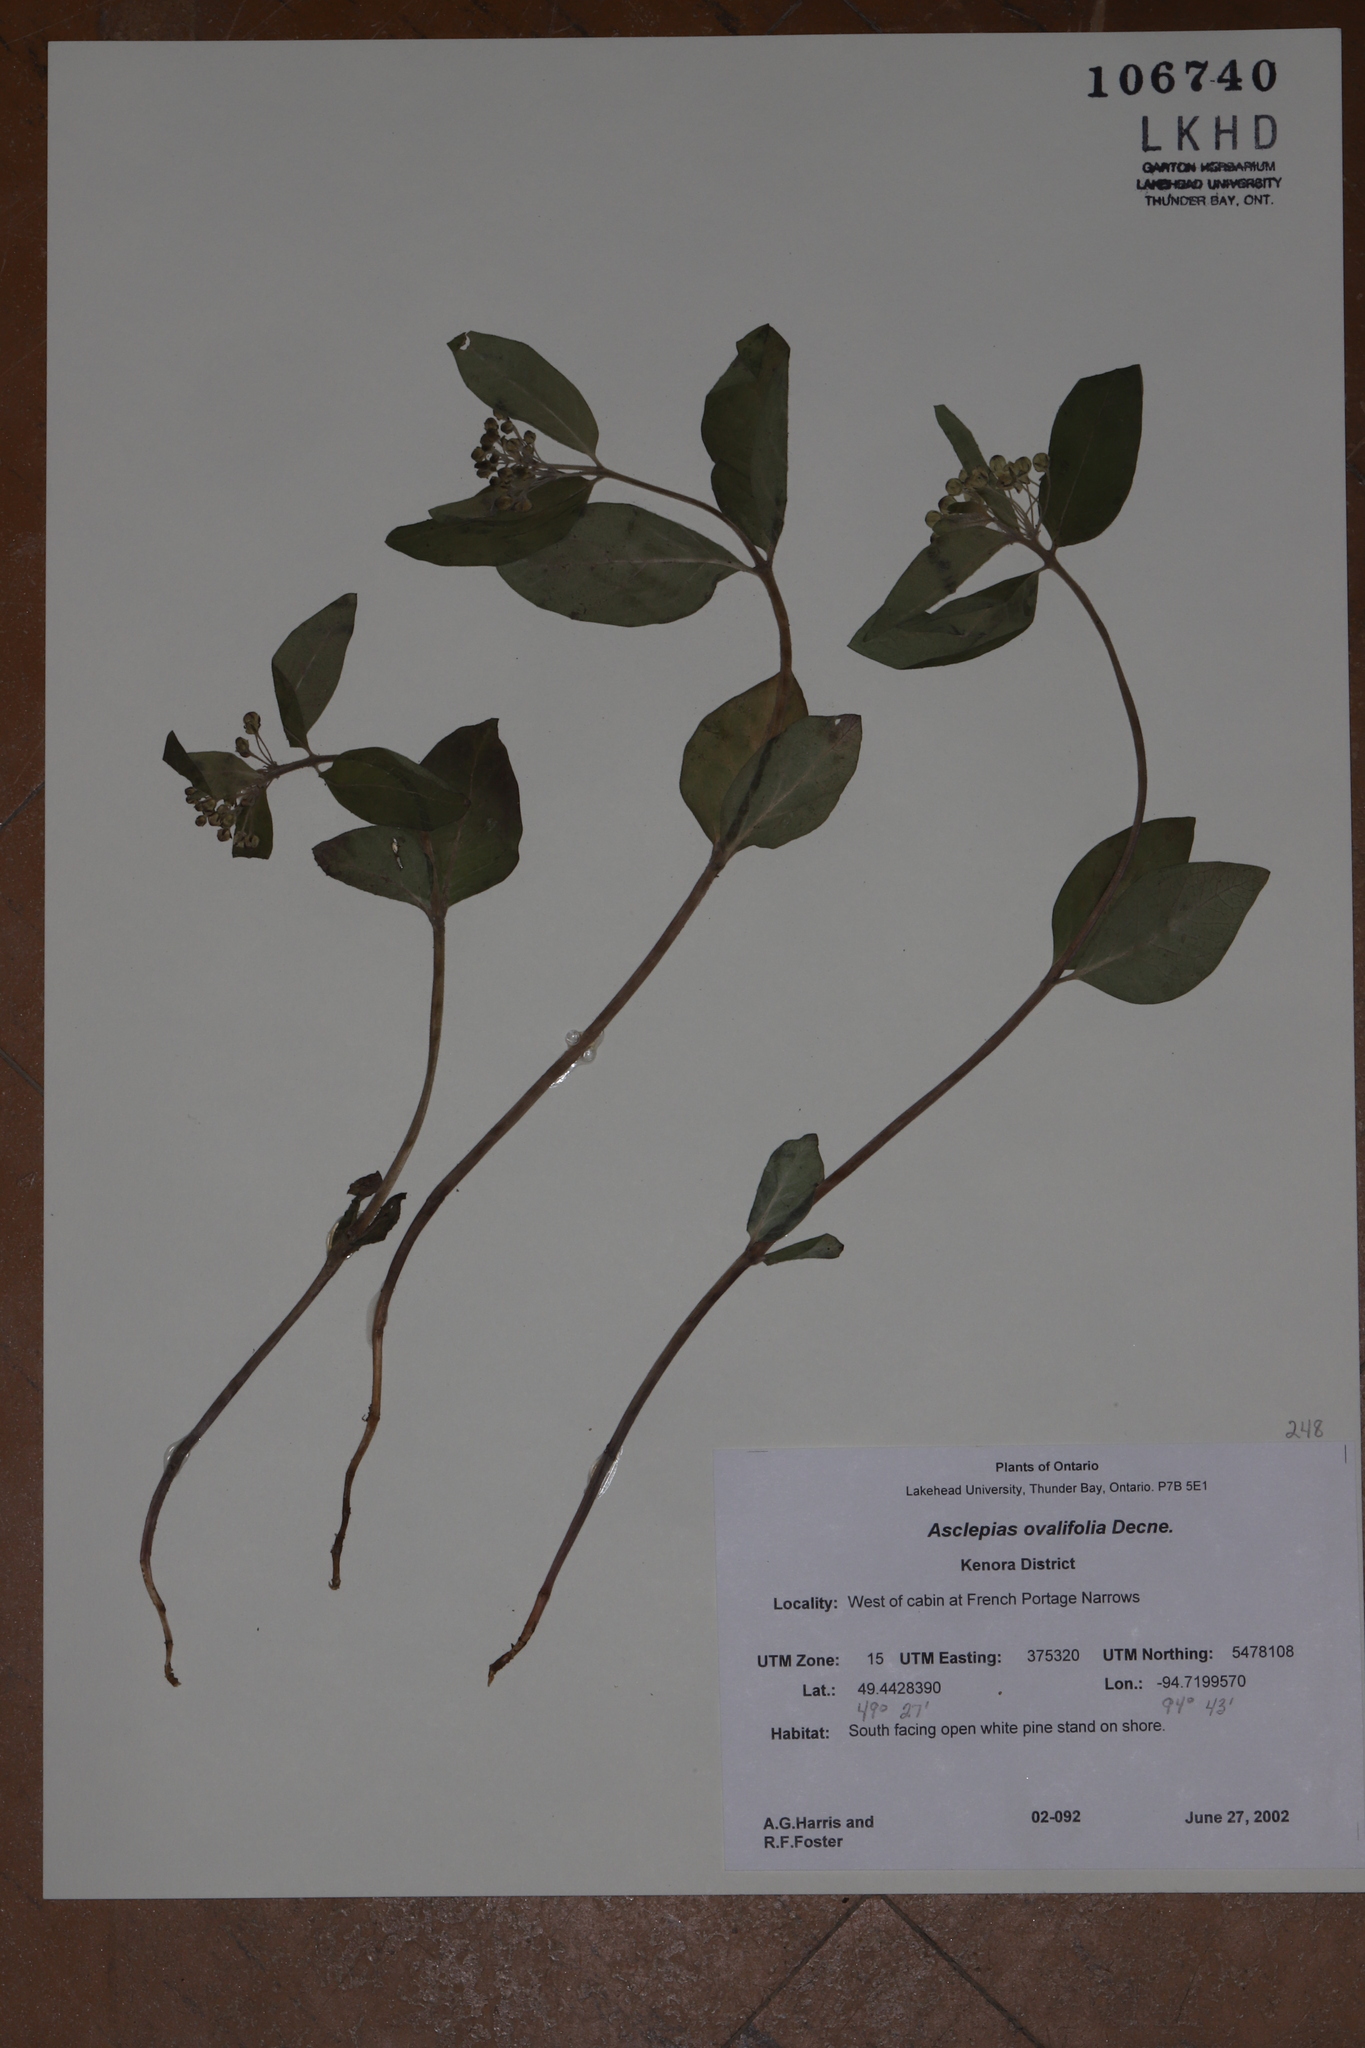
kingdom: Plantae
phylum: Tracheophyta
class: Magnoliopsida
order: Gentianales
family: Apocynaceae
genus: Asclepias
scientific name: Asclepias ovalifolia
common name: Dwarf milkweed
